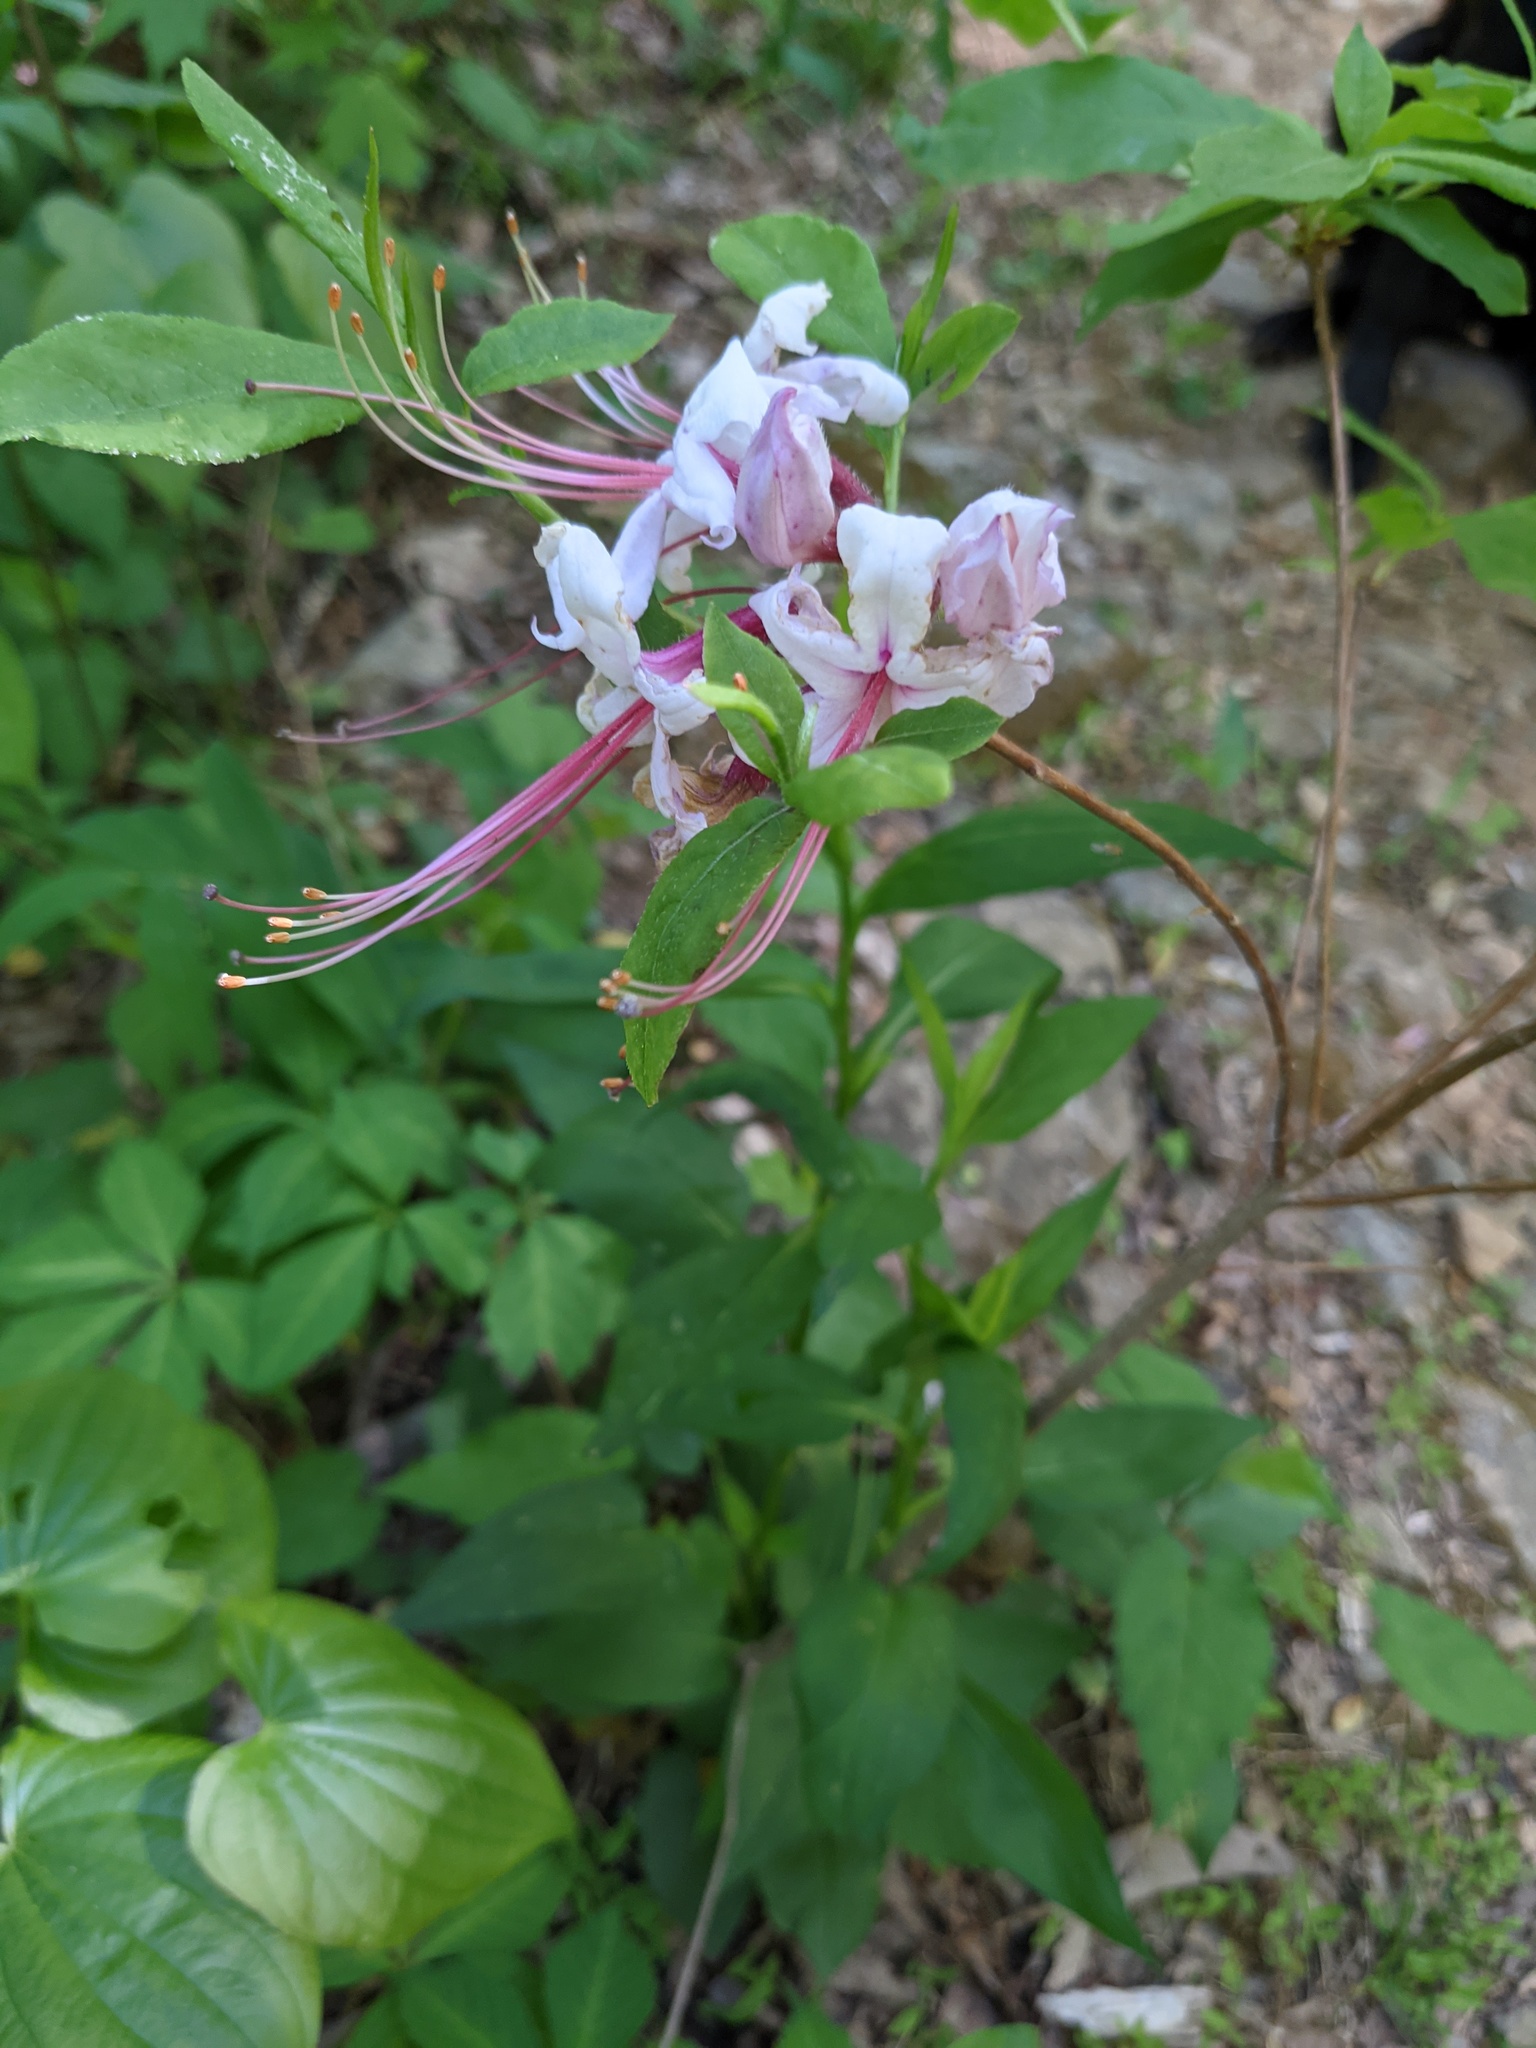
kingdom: Plantae
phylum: Tracheophyta
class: Magnoliopsida
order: Ericales
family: Ericaceae
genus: Rhododendron
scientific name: Rhododendron periclymenoides
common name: Election-pink
